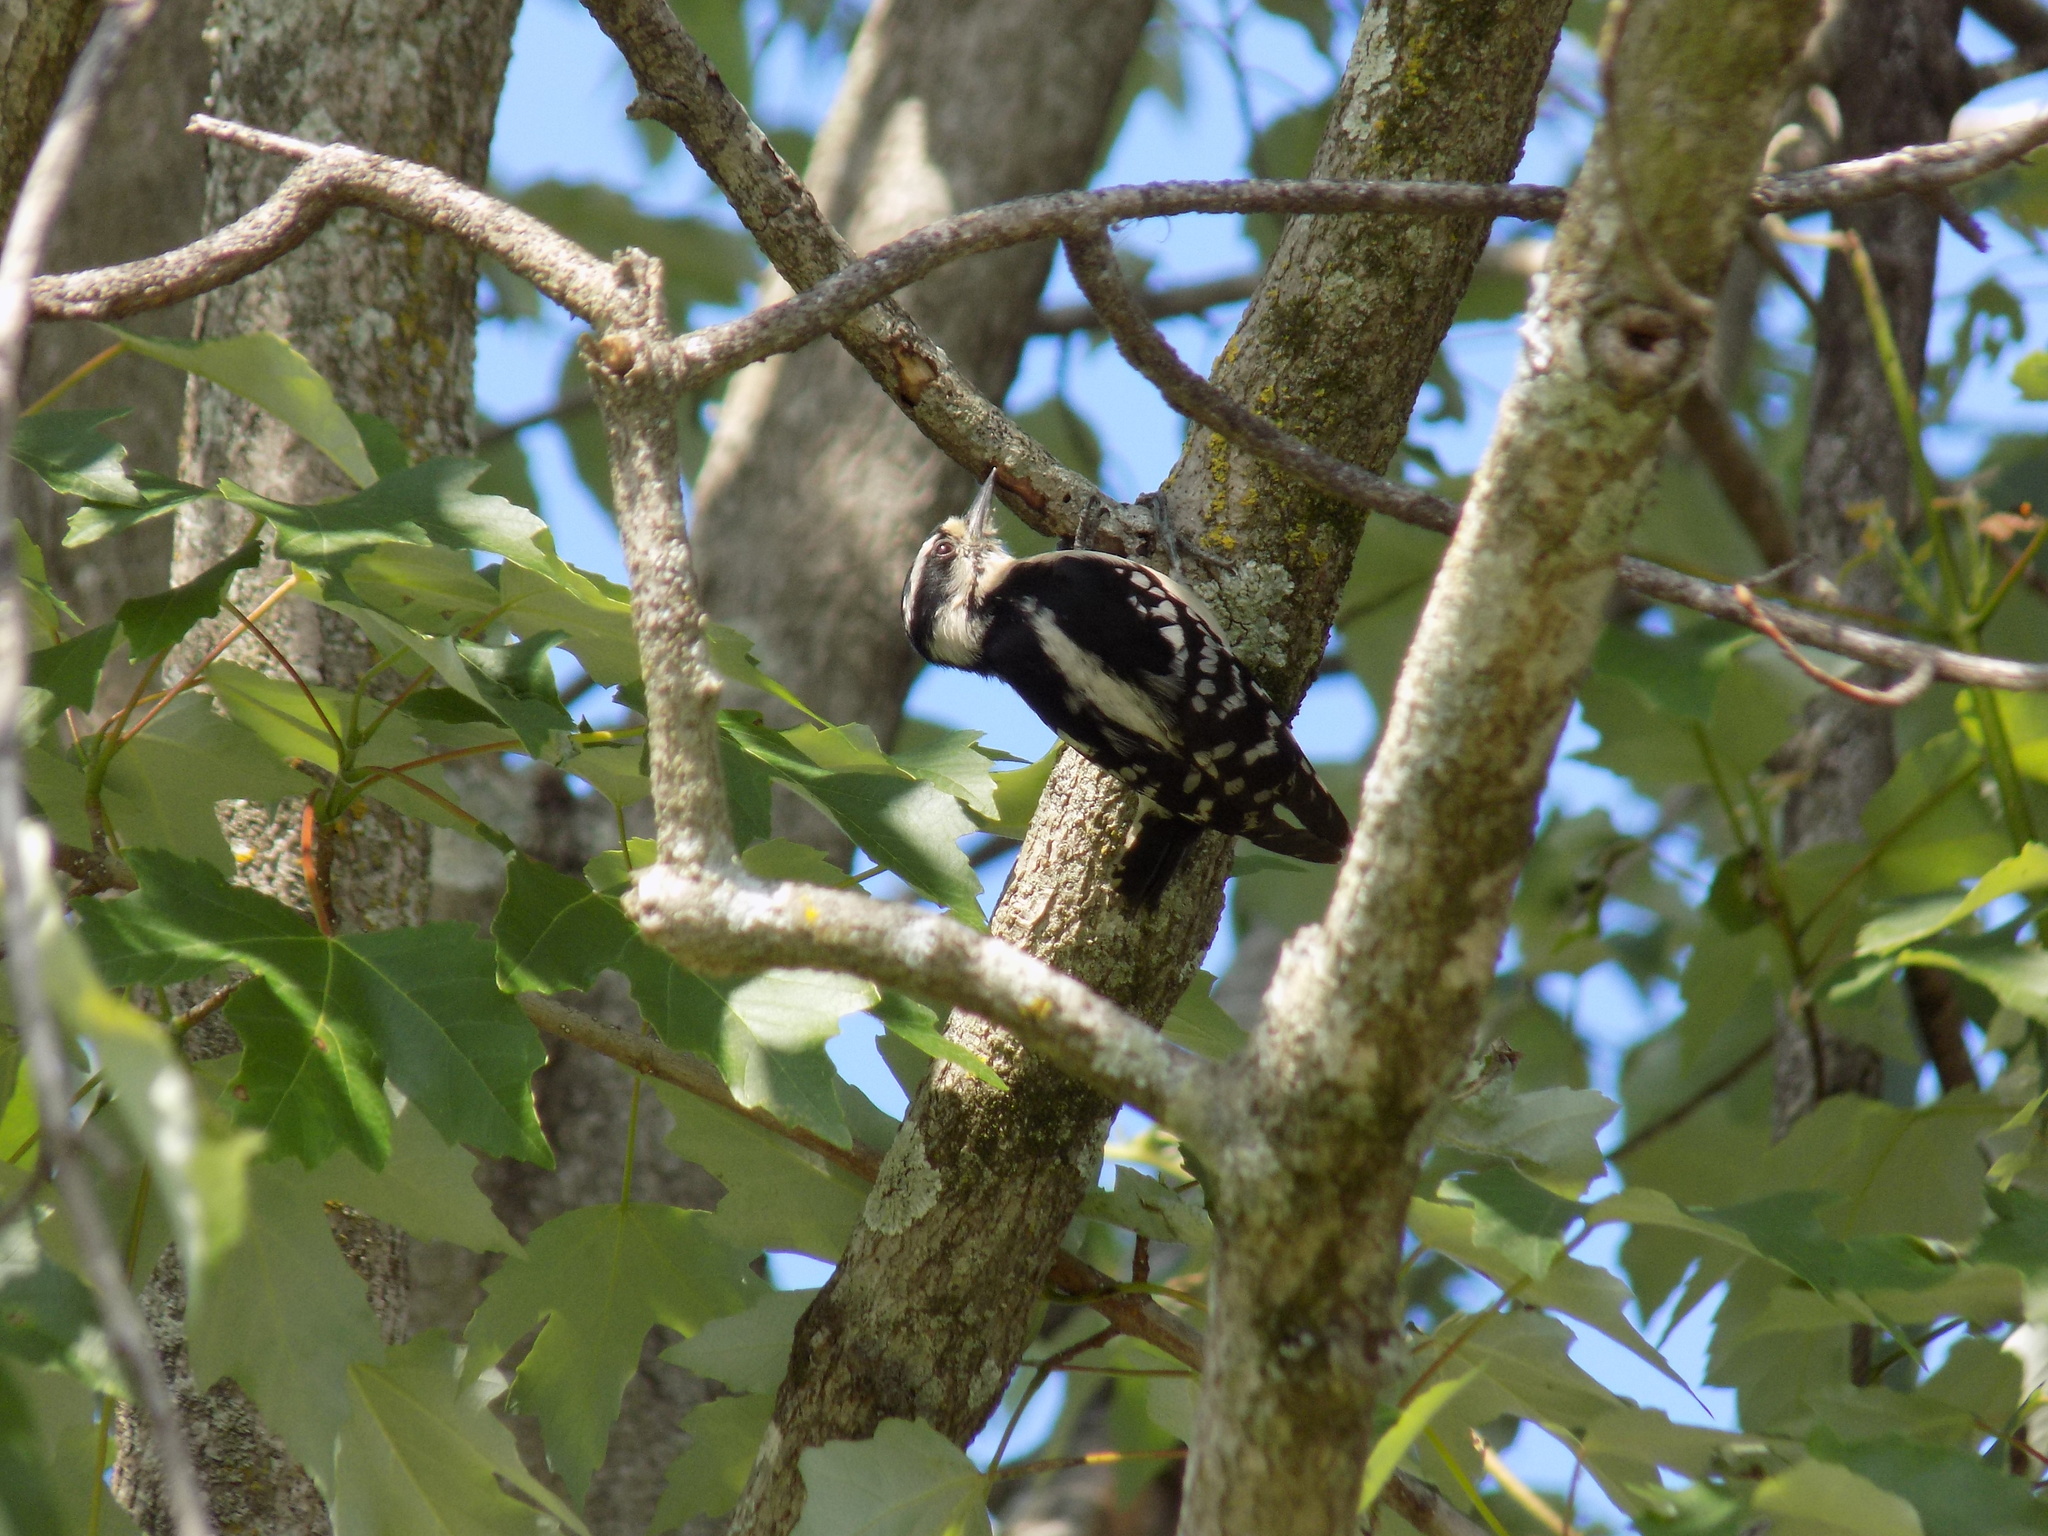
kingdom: Animalia
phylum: Chordata
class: Aves
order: Piciformes
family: Picidae
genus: Dryobates
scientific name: Dryobates pubescens
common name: Downy woodpecker
